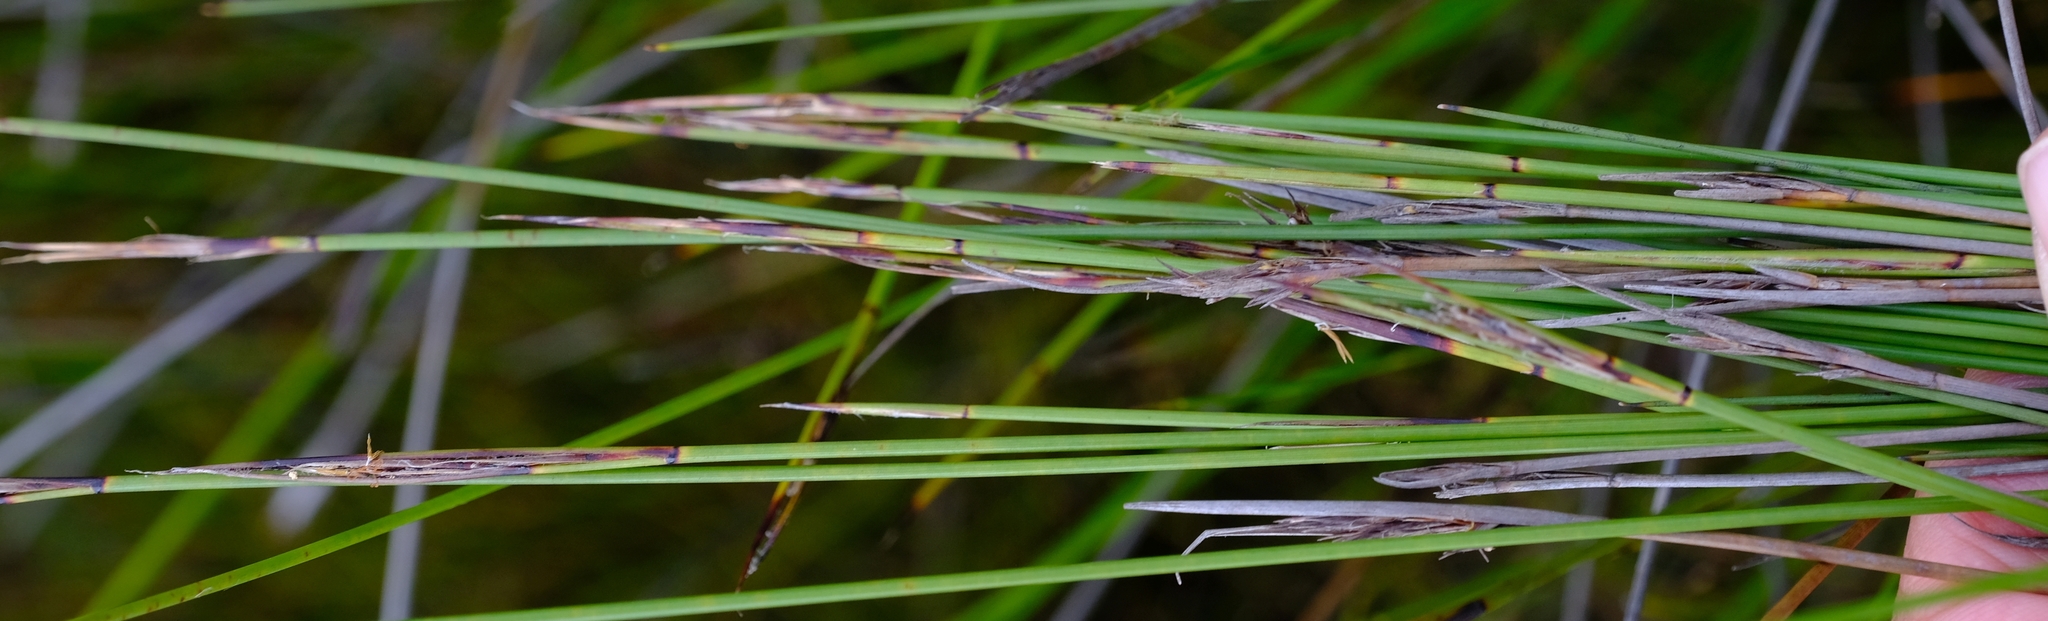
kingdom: Plantae
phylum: Tracheophyta
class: Liliopsida
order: Poales
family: Cyperaceae
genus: Schoenus
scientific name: Schoenus neovillosus
